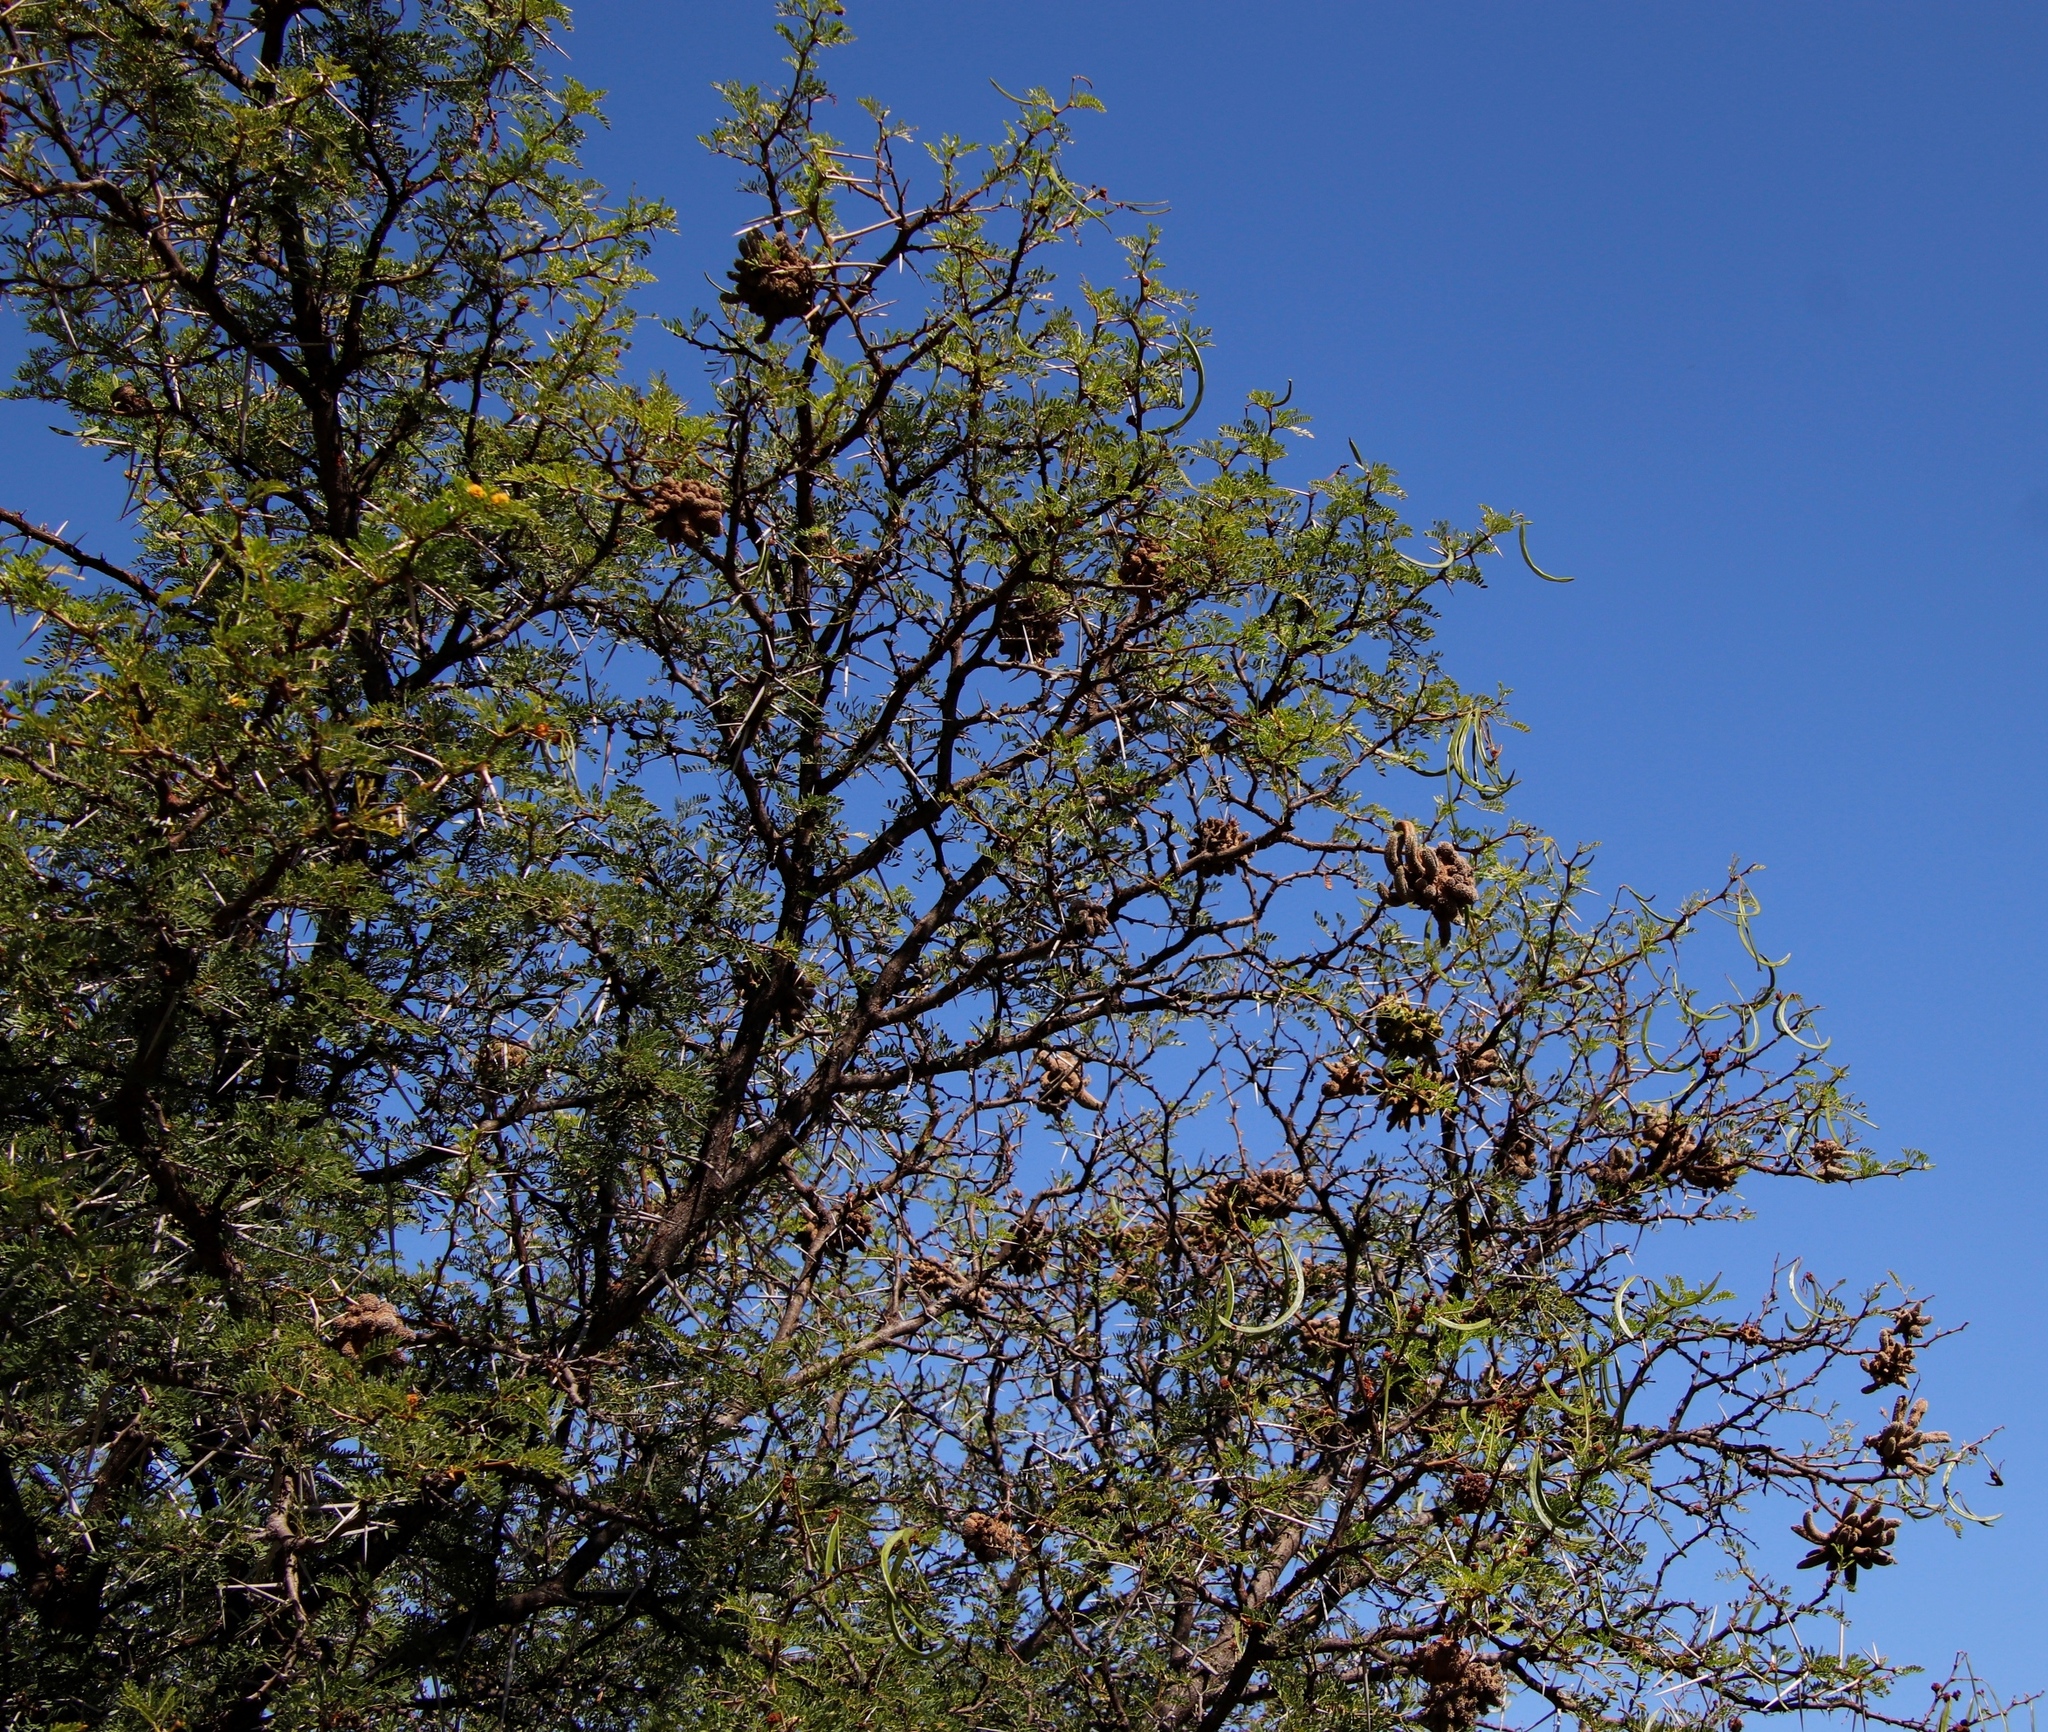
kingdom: Plantae
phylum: Tracheophyta
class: Magnoliopsida
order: Fabales
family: Fabaceae
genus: Vachellia
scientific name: Vachellia karroo
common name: Sweet thorn
